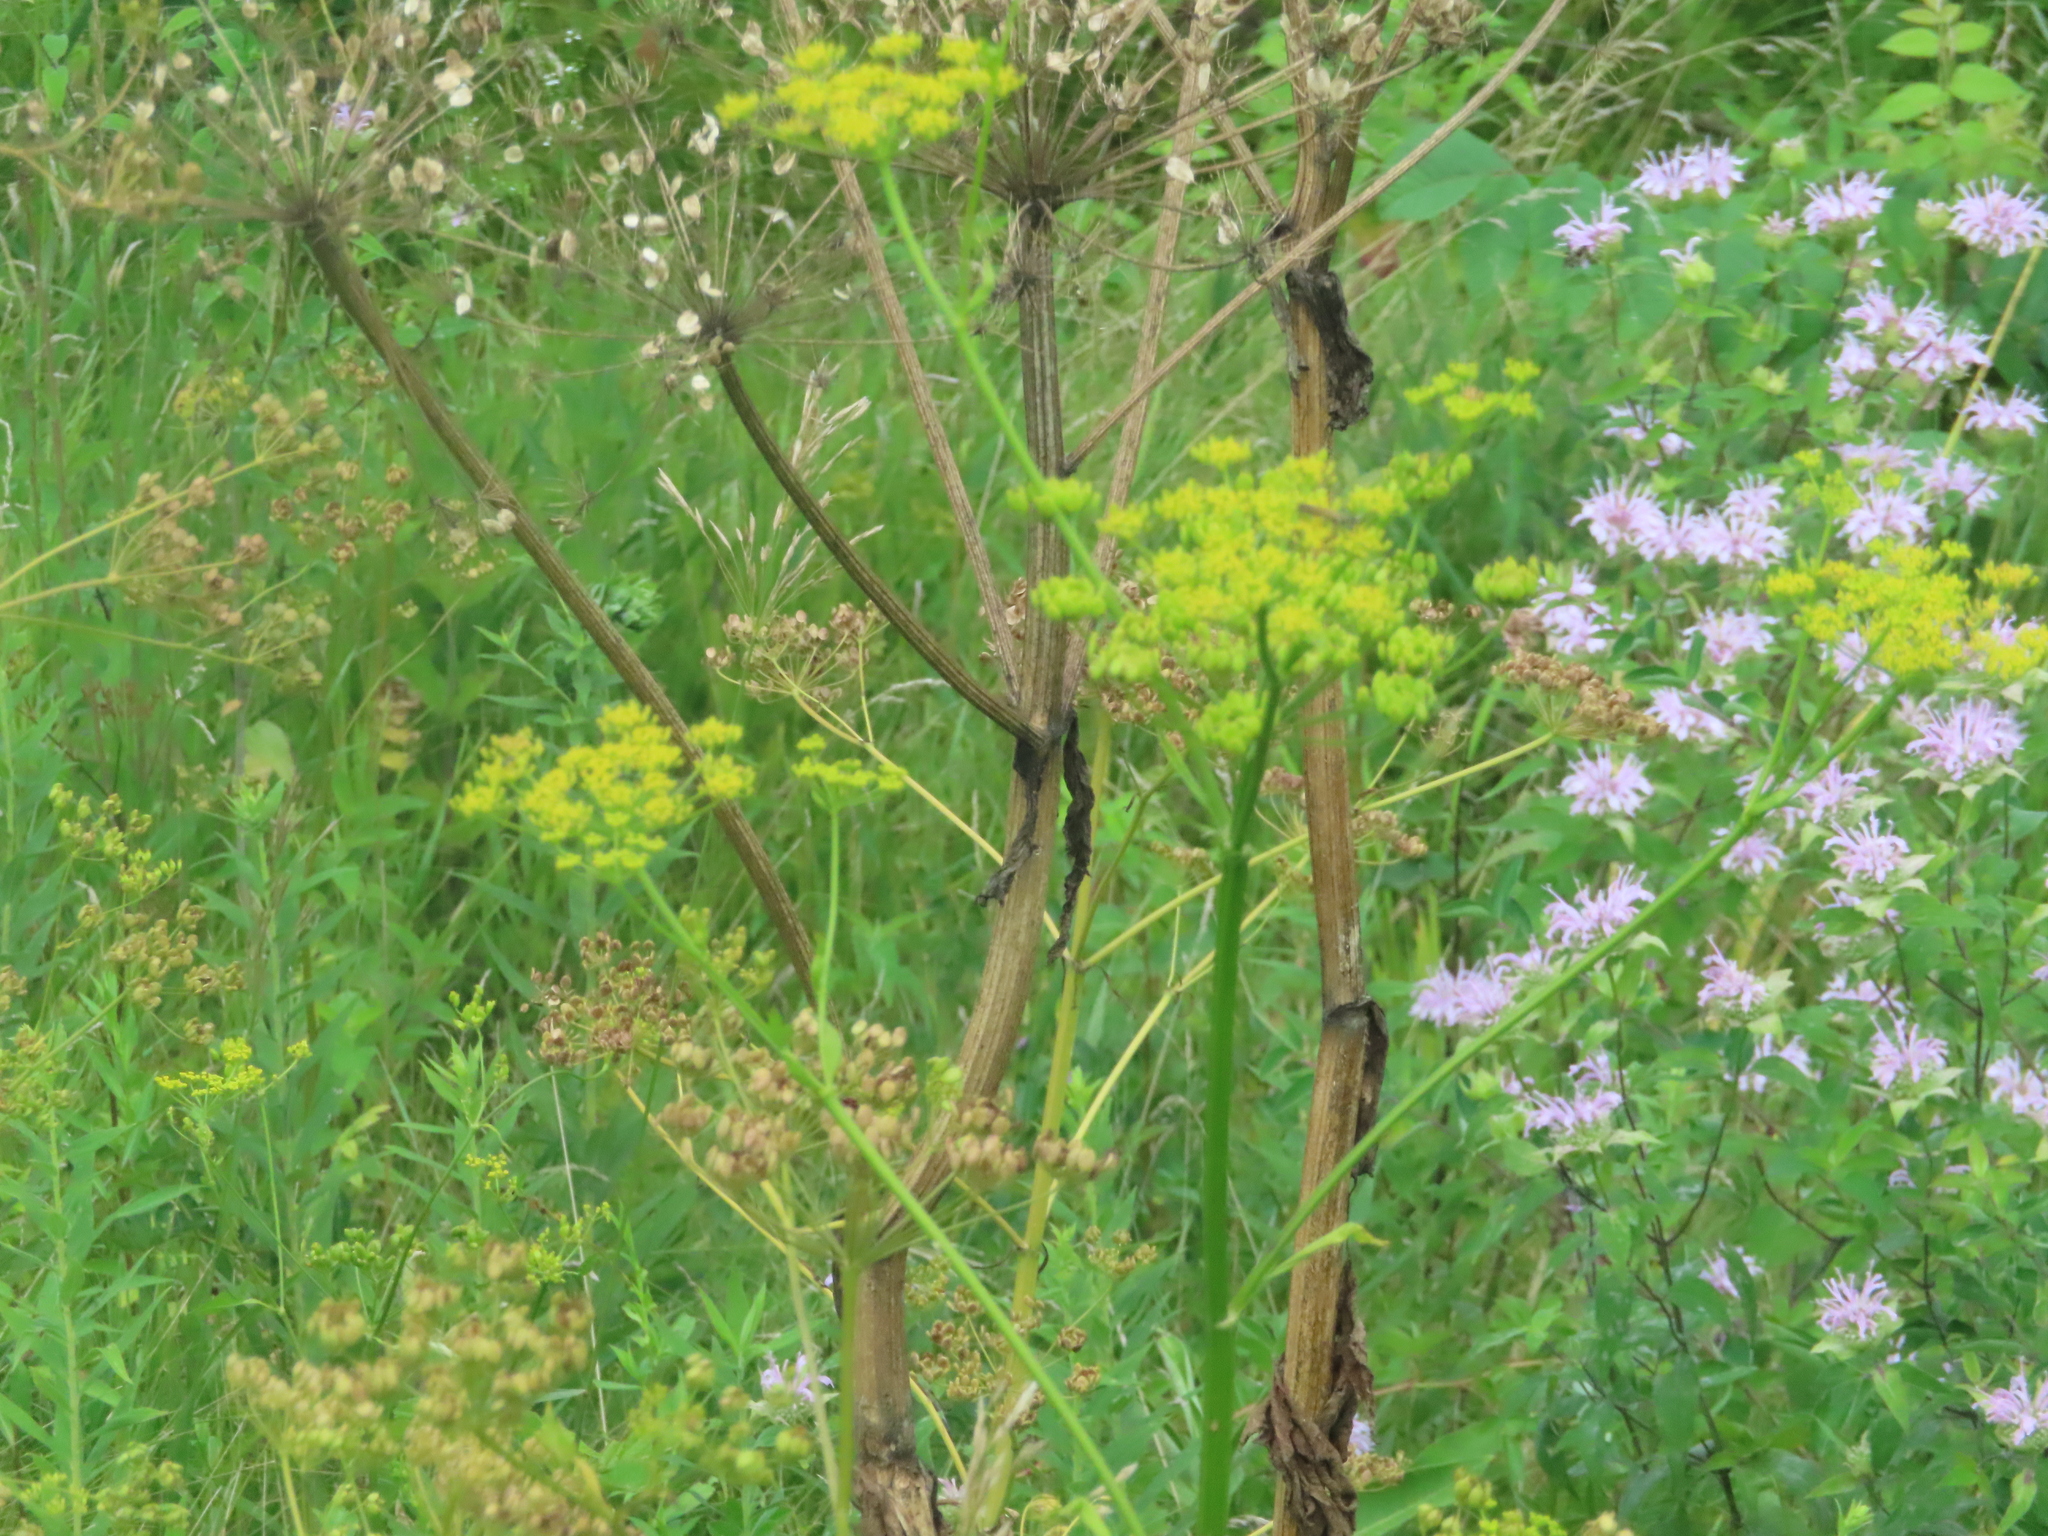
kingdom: Plantae
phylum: Tracheophyta
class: Magnoliopsida
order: Apiales
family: Apiaceae
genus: Pastinaca
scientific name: Pastinaca sativa
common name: Wild parsnip
